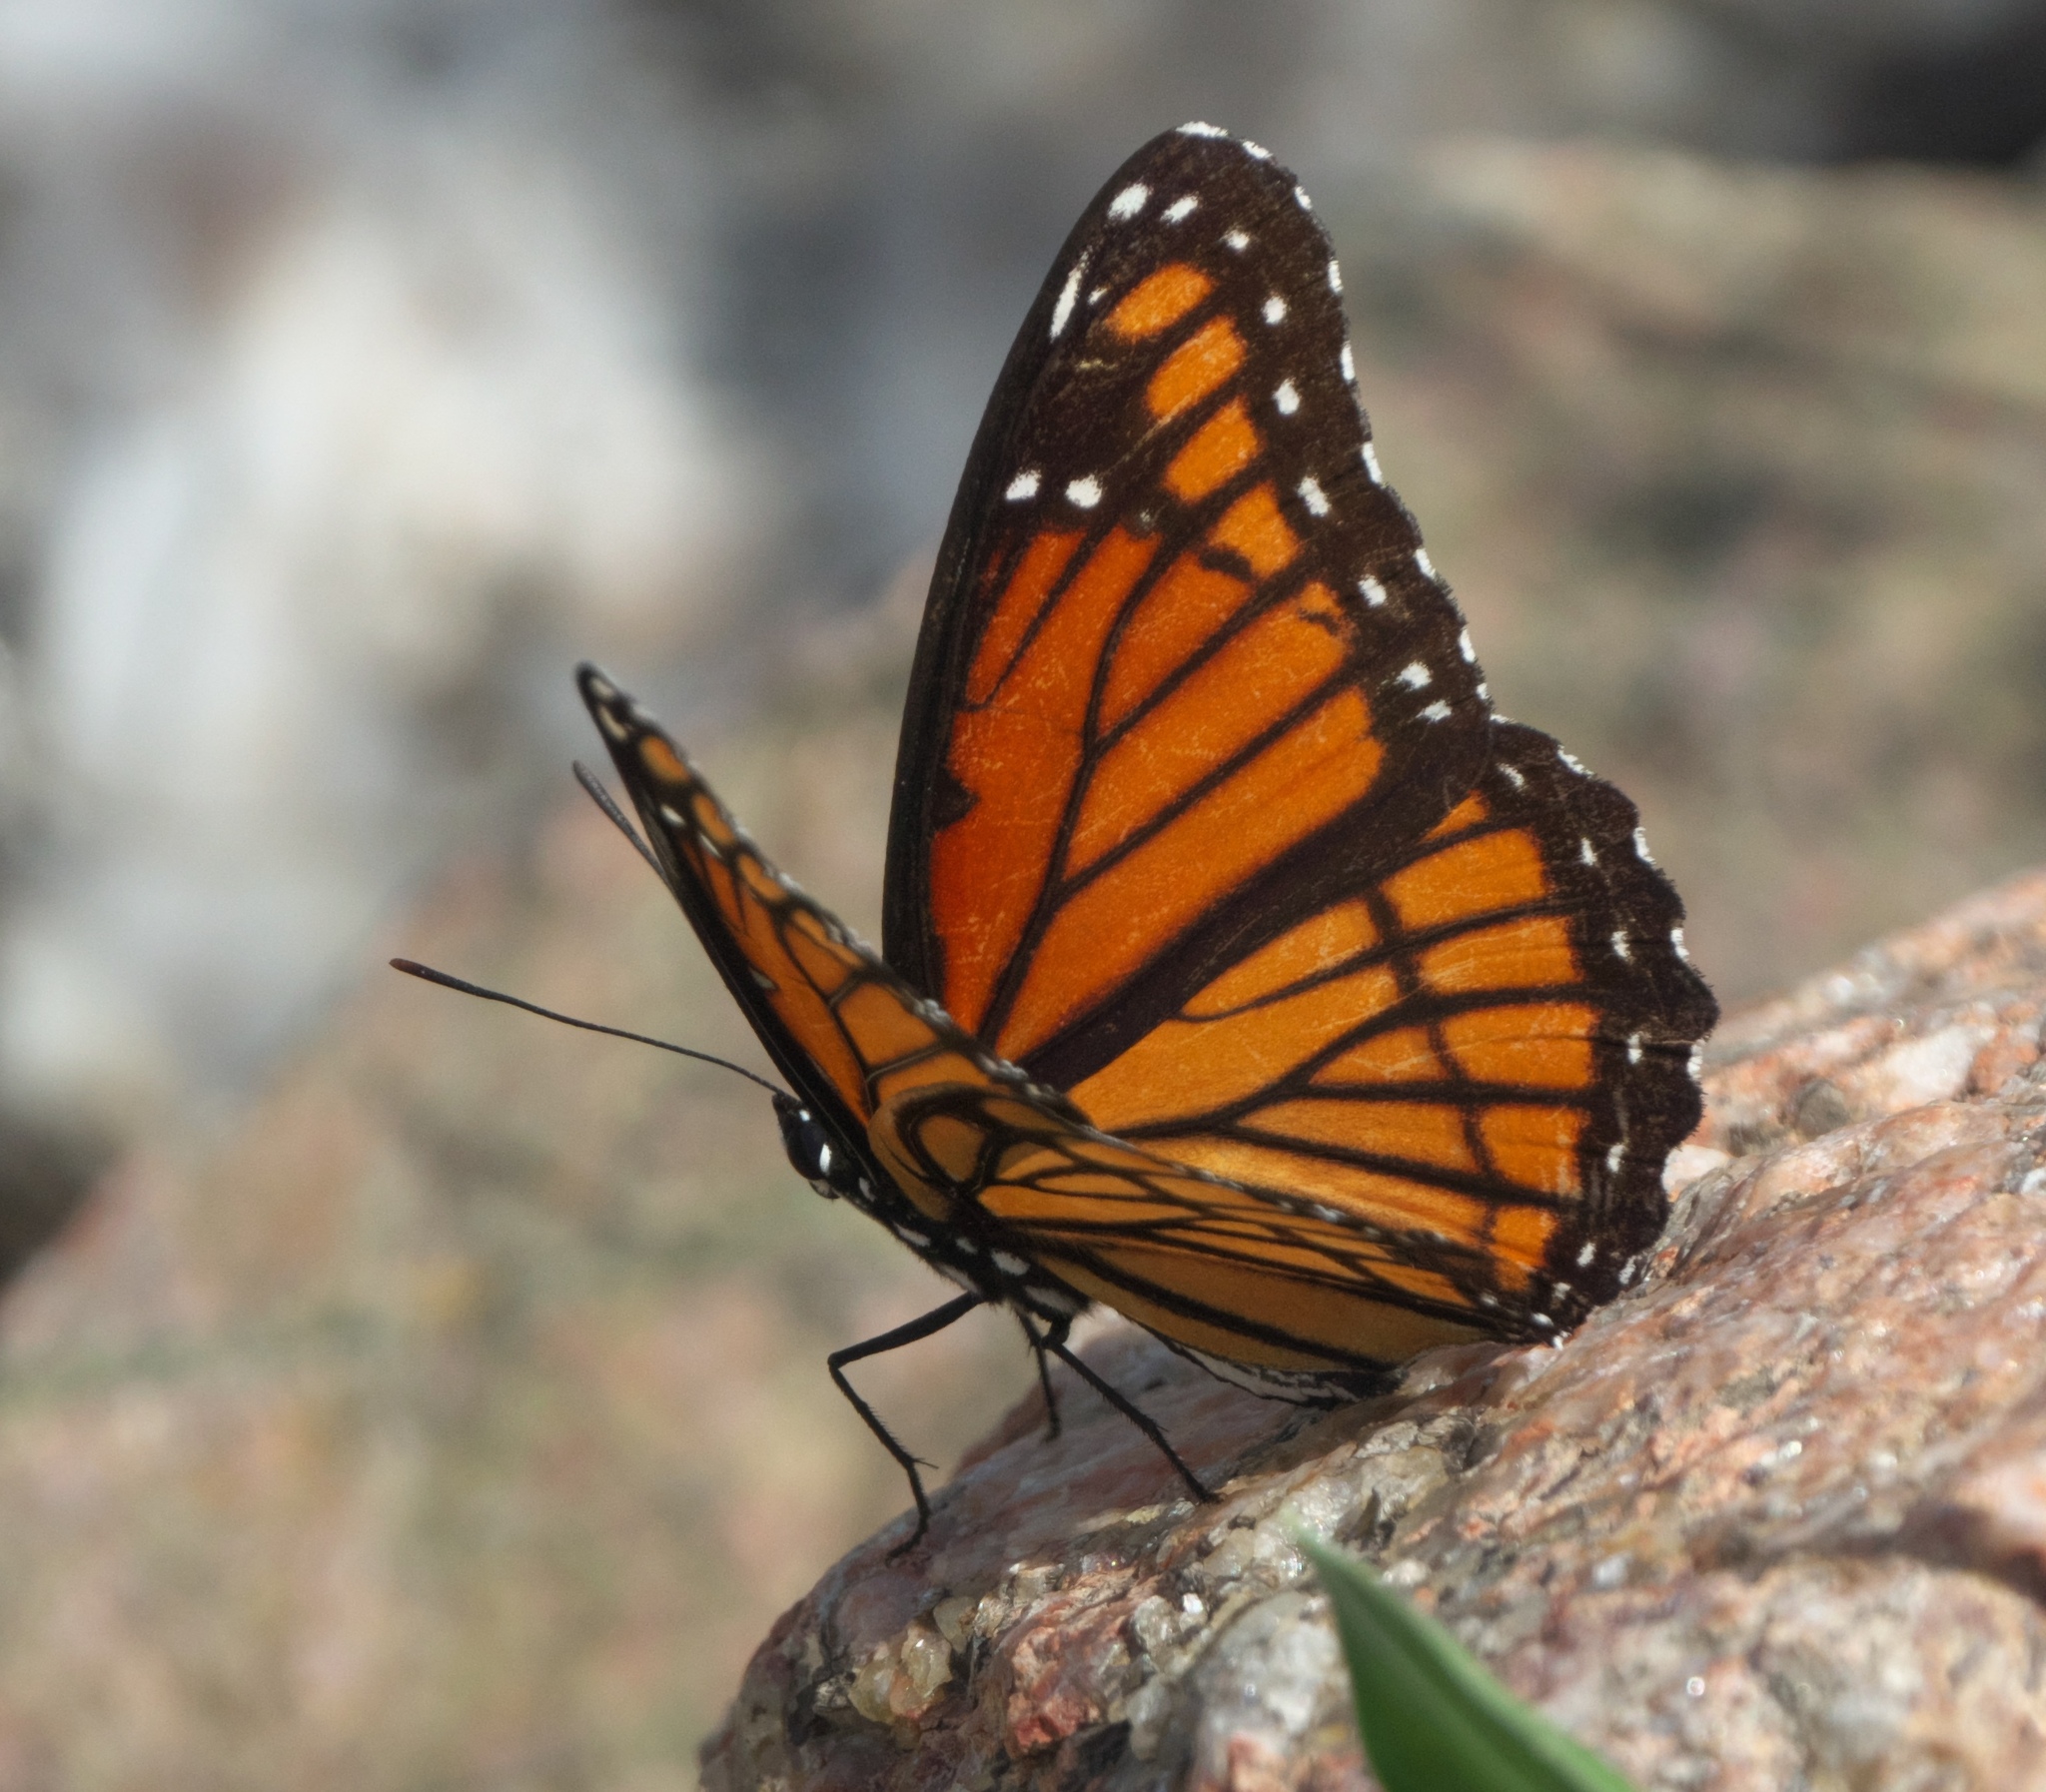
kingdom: Animalia
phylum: Arthropoda
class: Insecta
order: Lepidoptera
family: Nymphalidae
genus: Limenitis
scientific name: Limenitis archippus
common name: Viceroy
